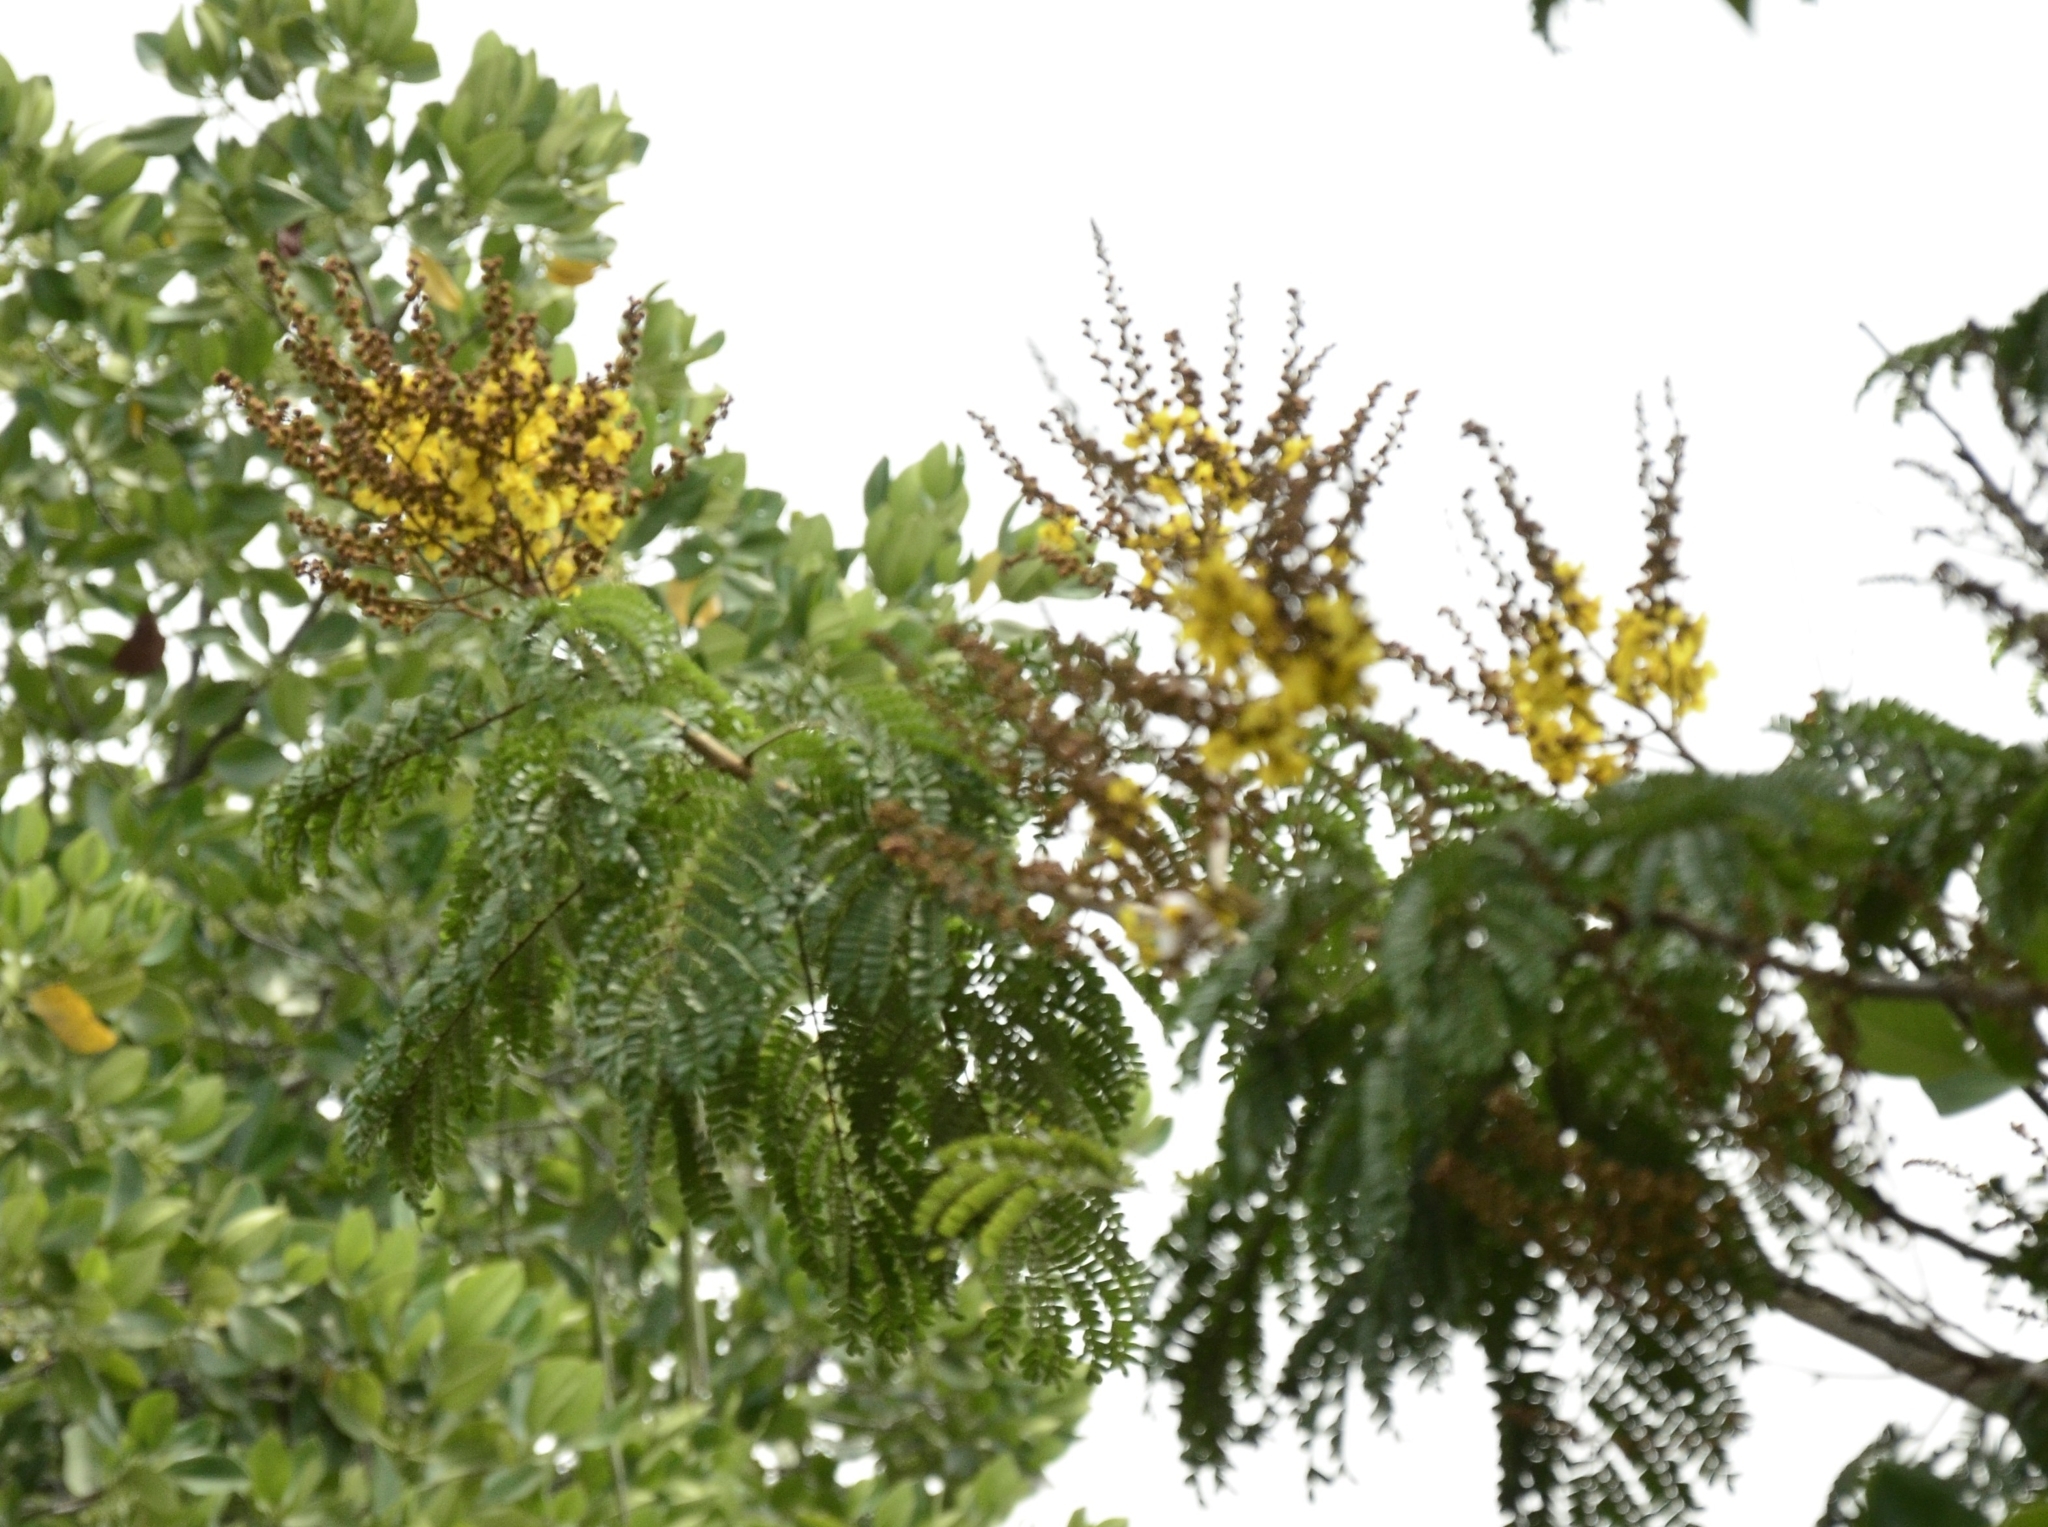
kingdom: Plantae
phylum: Tracheophyta
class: Magnoliopsida
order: Fabales
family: Fabaceae
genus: Peltophorum
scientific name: Peltophorum pterocarpum
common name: Yellow flame
